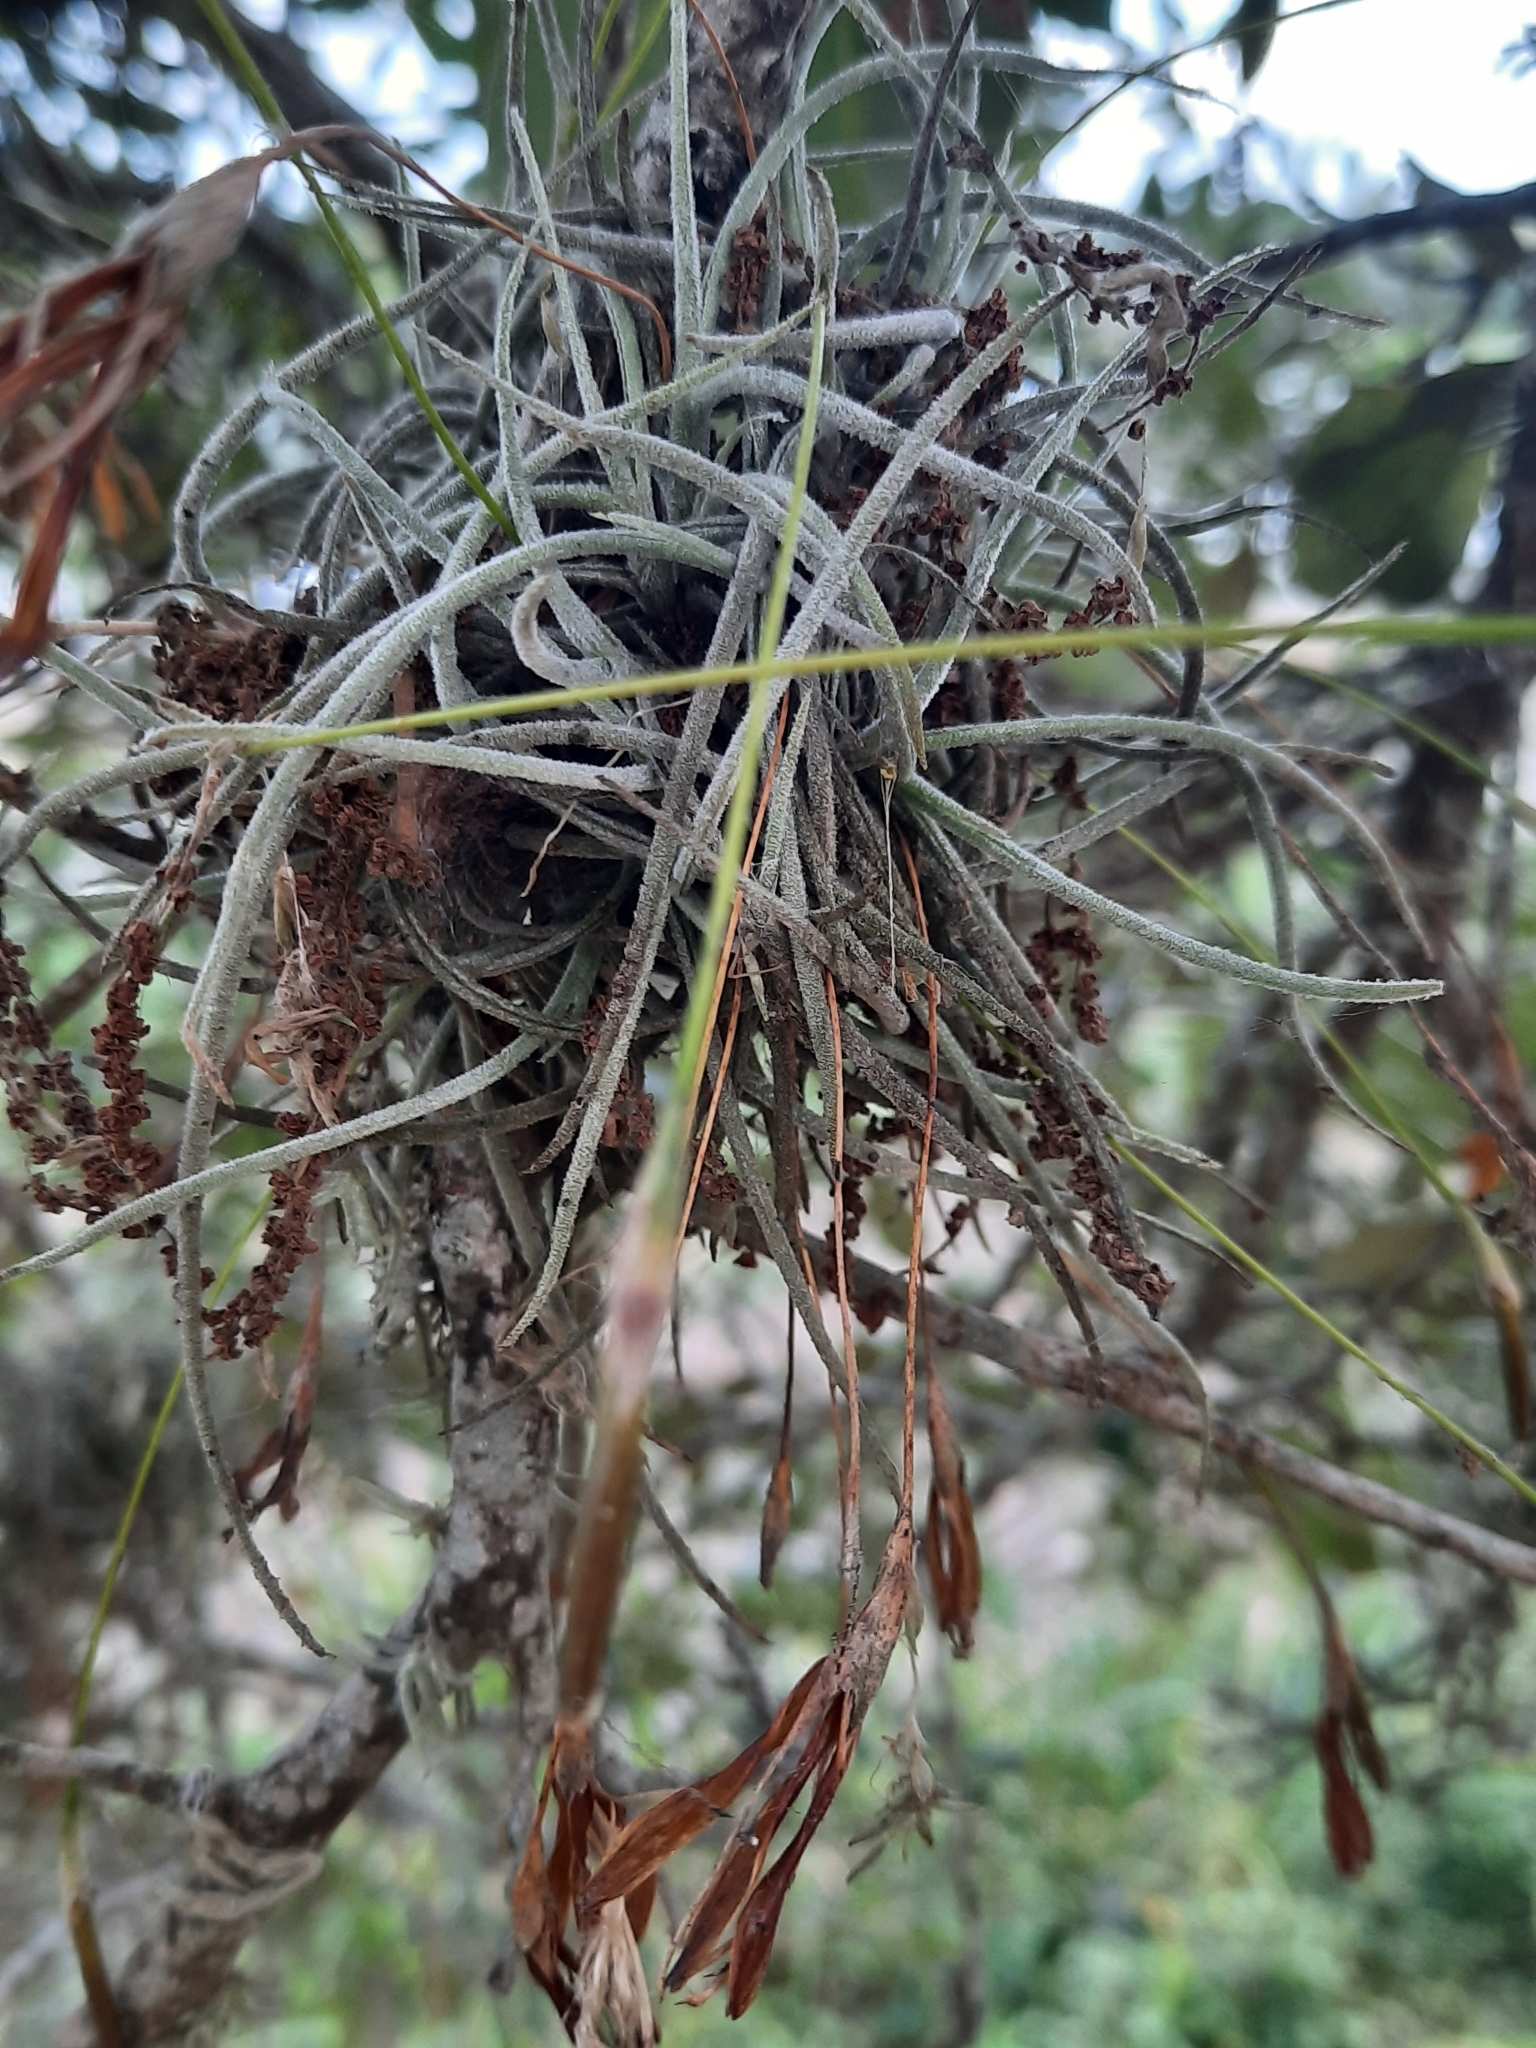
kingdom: Plantae
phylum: Tracheophyta
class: Liliopsida
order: Poales
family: Bromeliaceae
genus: Tillandsia
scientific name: Tillandsia recurvata
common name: Small ballmoss
